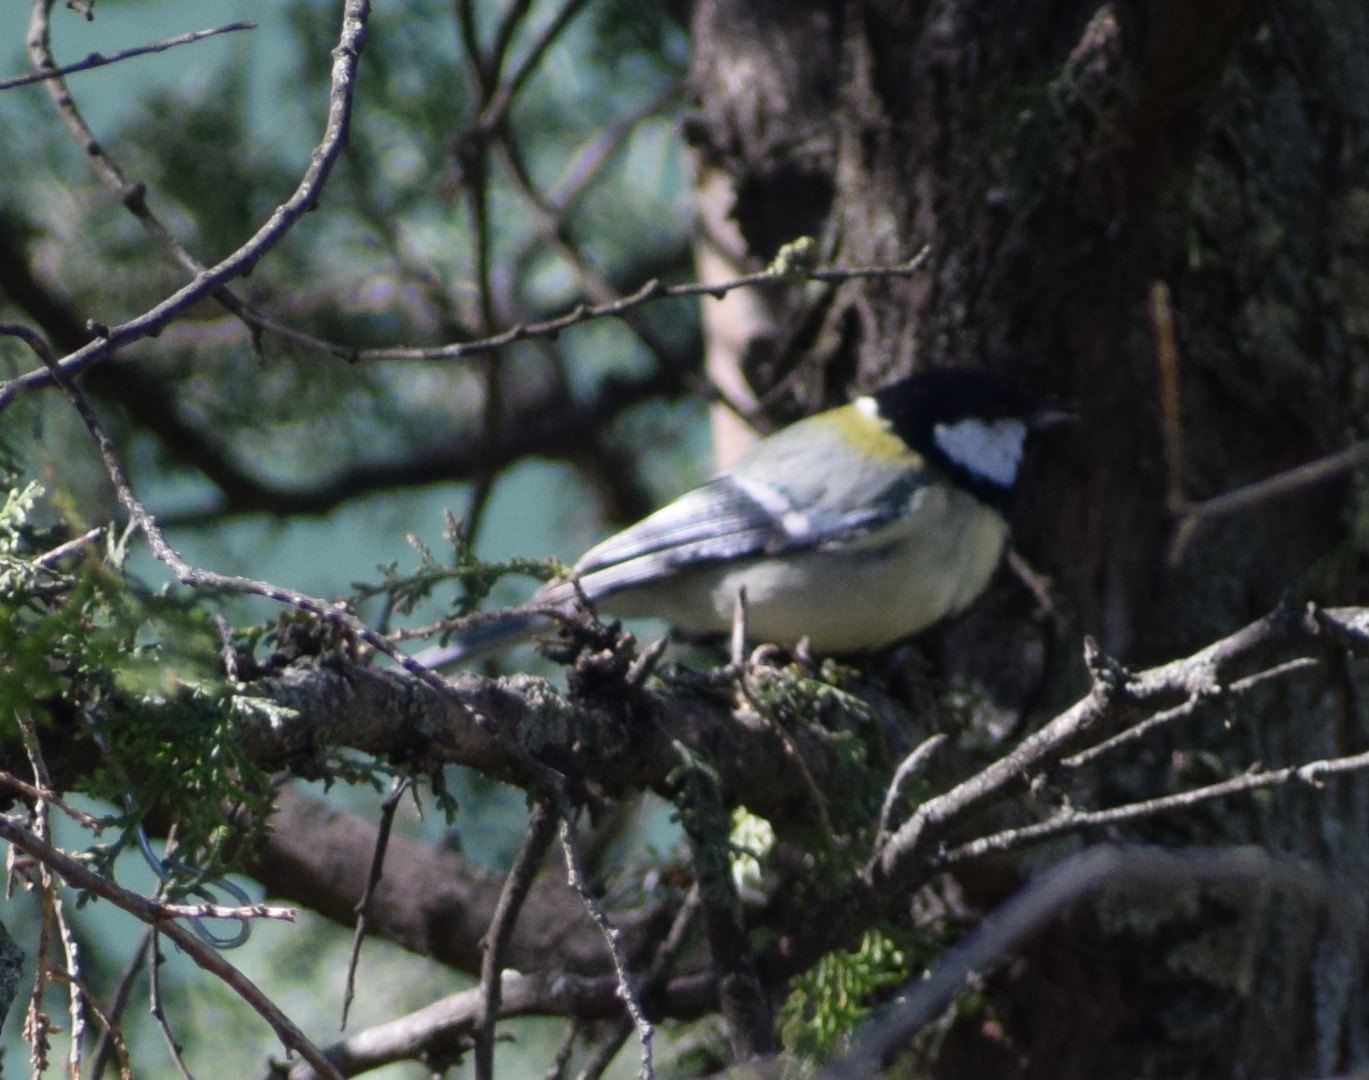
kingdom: Animalia
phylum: Chordata
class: Aves
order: Passeriformes
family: Paridae
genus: Parus
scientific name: Parus major
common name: Great tit
